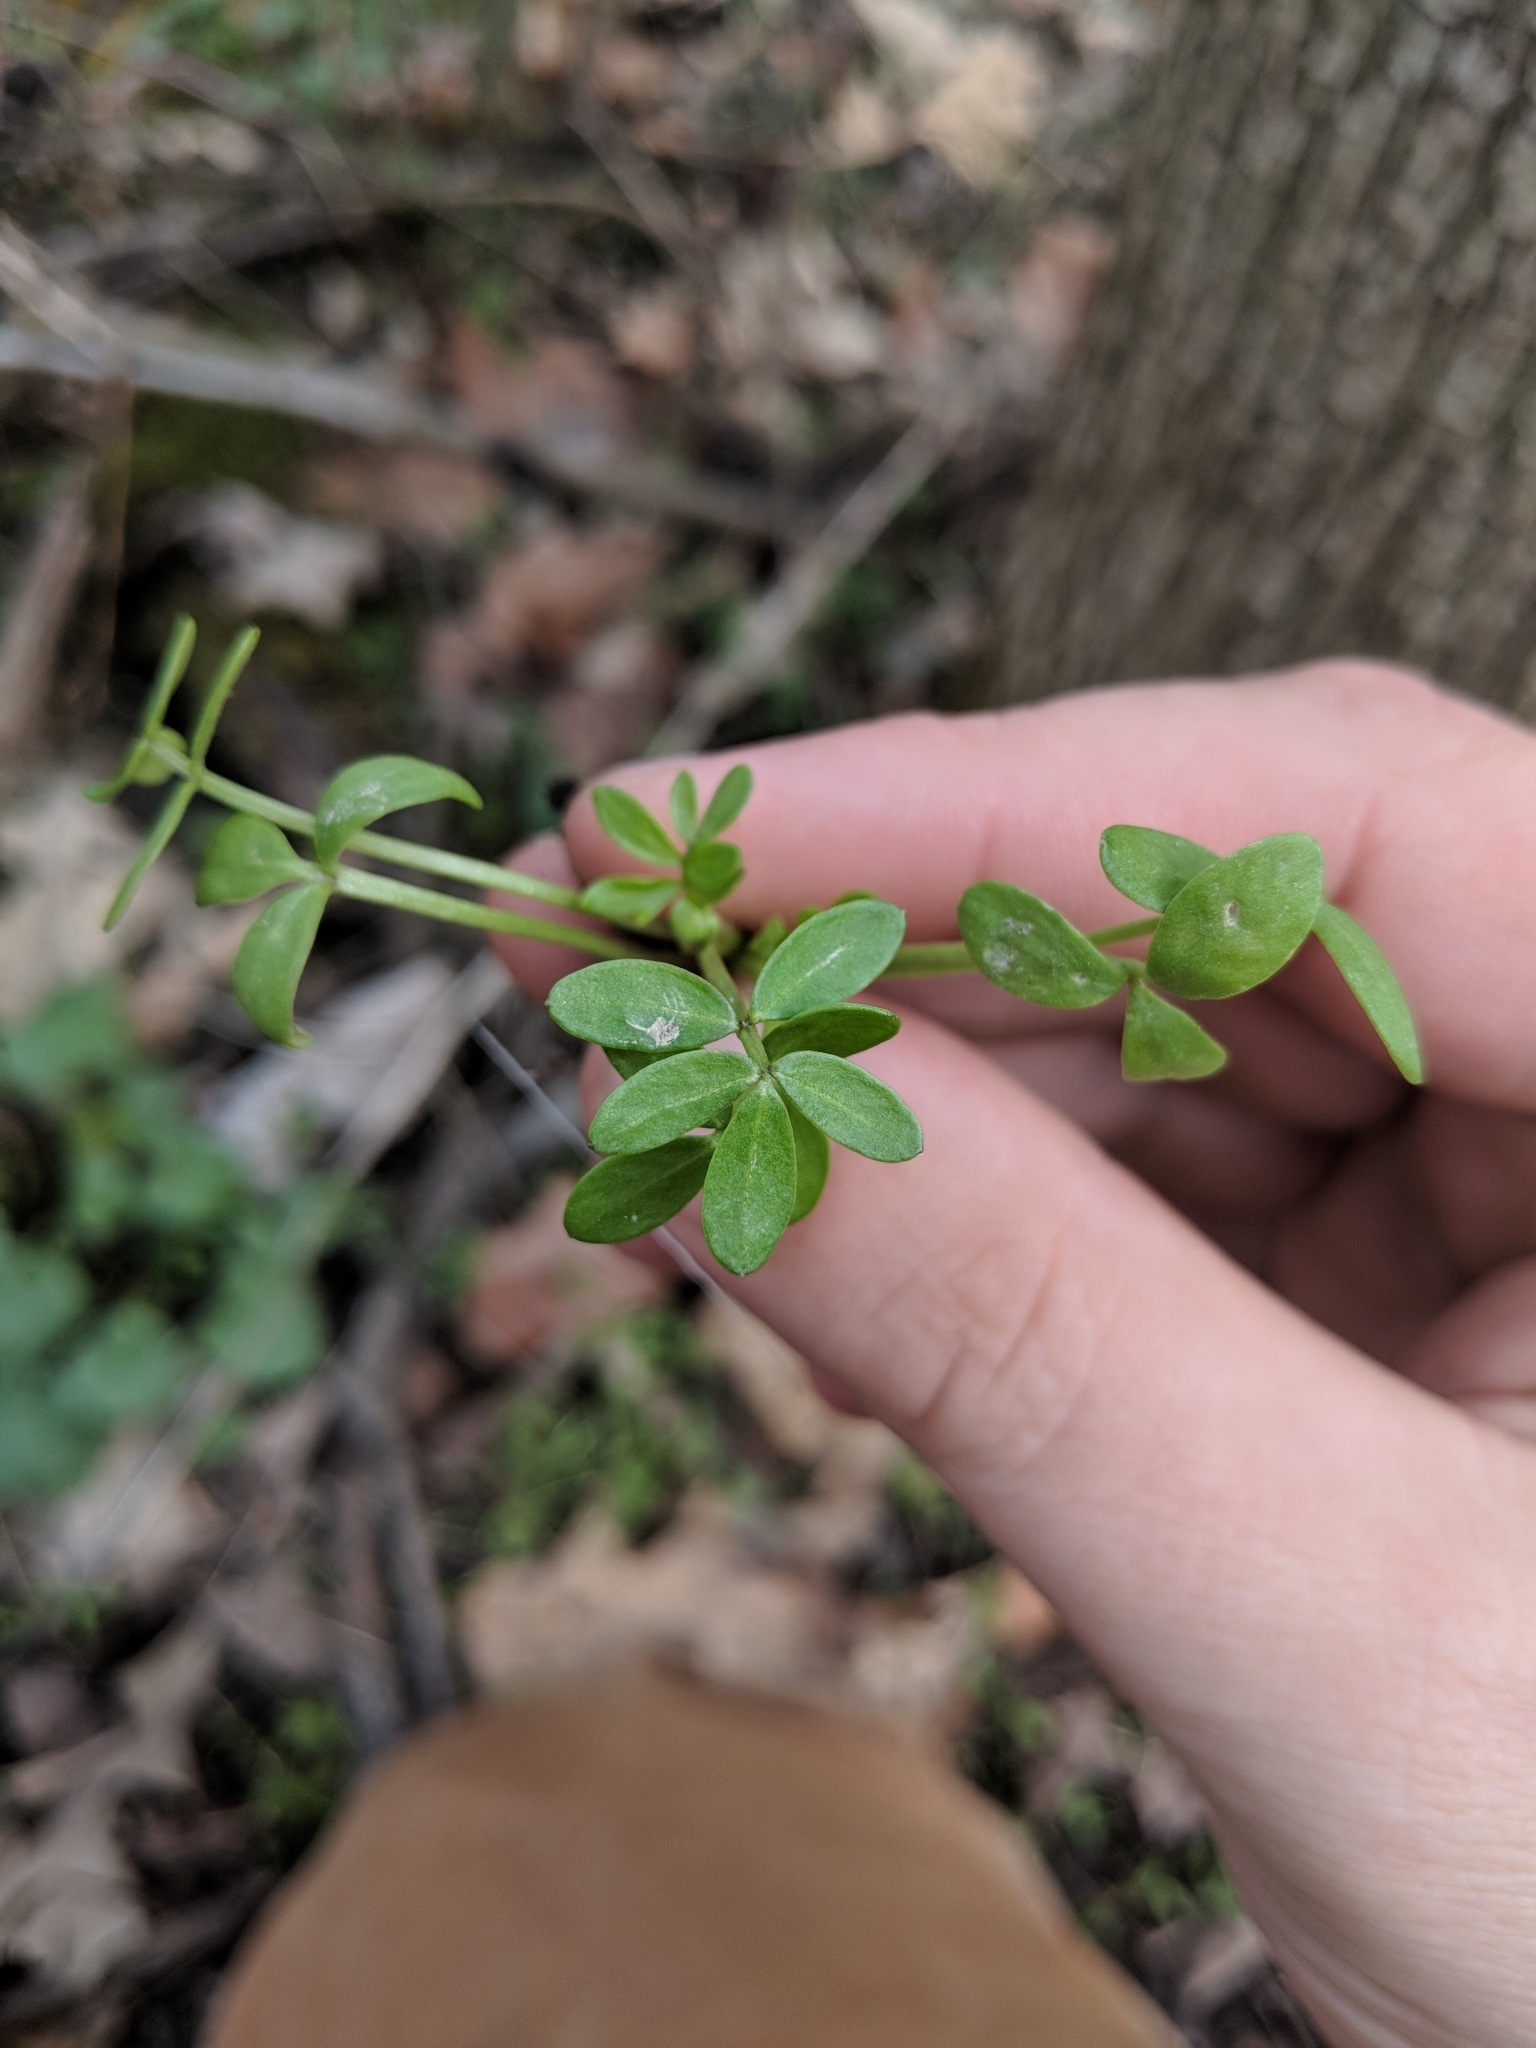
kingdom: Plantae
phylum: Tracheophyta
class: Magnoliopsida
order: Brassicales
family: Limnanthaceae
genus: Floerkea
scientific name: Floerkea proserpinacoides
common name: False mermaid
